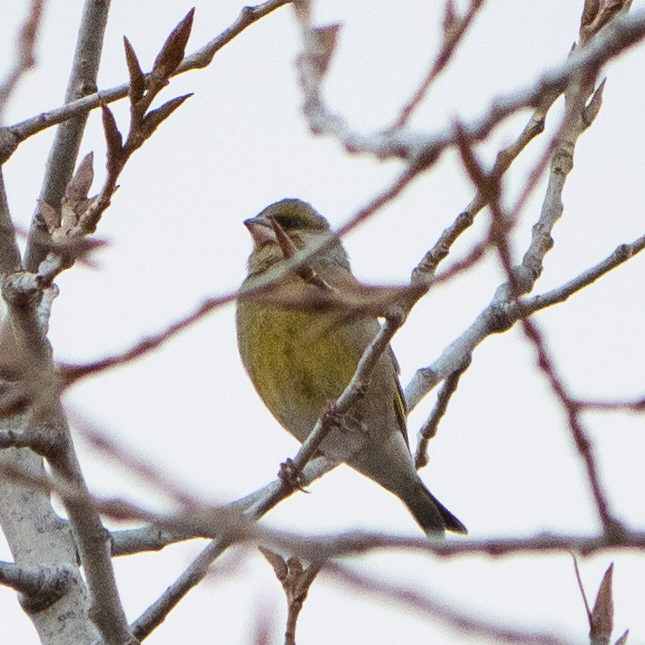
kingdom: Plantae
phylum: Tracheophyta
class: Liliopsida
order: Poales
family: Poaceae
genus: Chloris
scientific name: Chloris chloris
